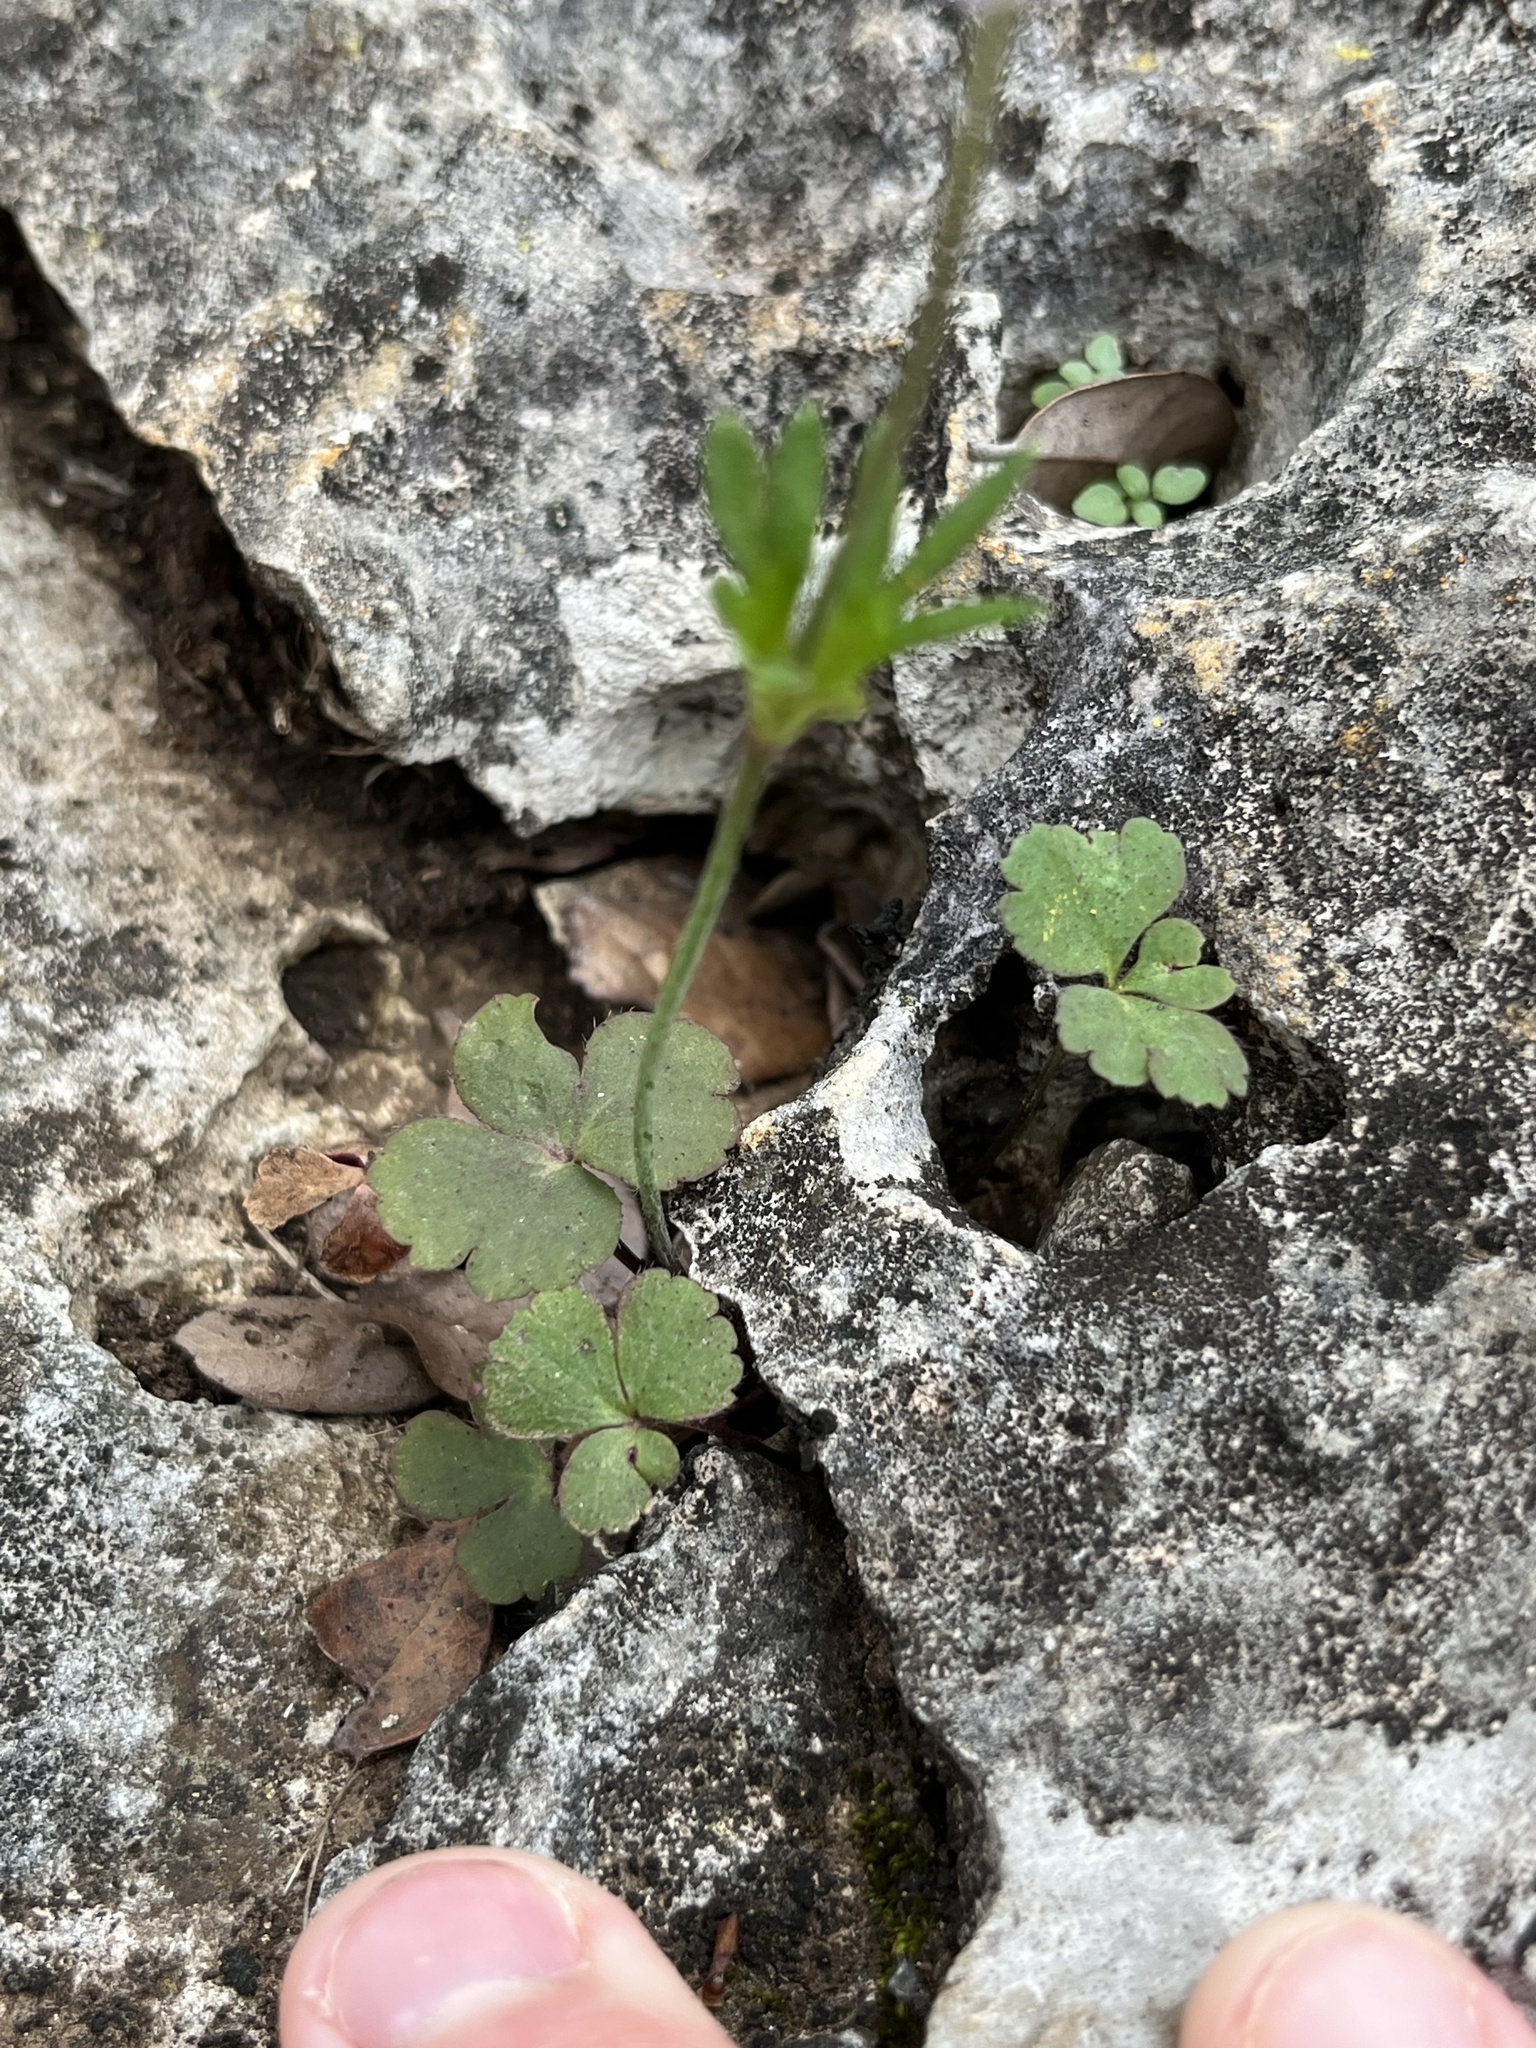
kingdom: Plantae
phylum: Tracheophyta
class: Magnoliopsida
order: Ranunculales
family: Ranunculaceae
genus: Anemone
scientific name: Anemone berlandieri
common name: Ten-petal anemone
